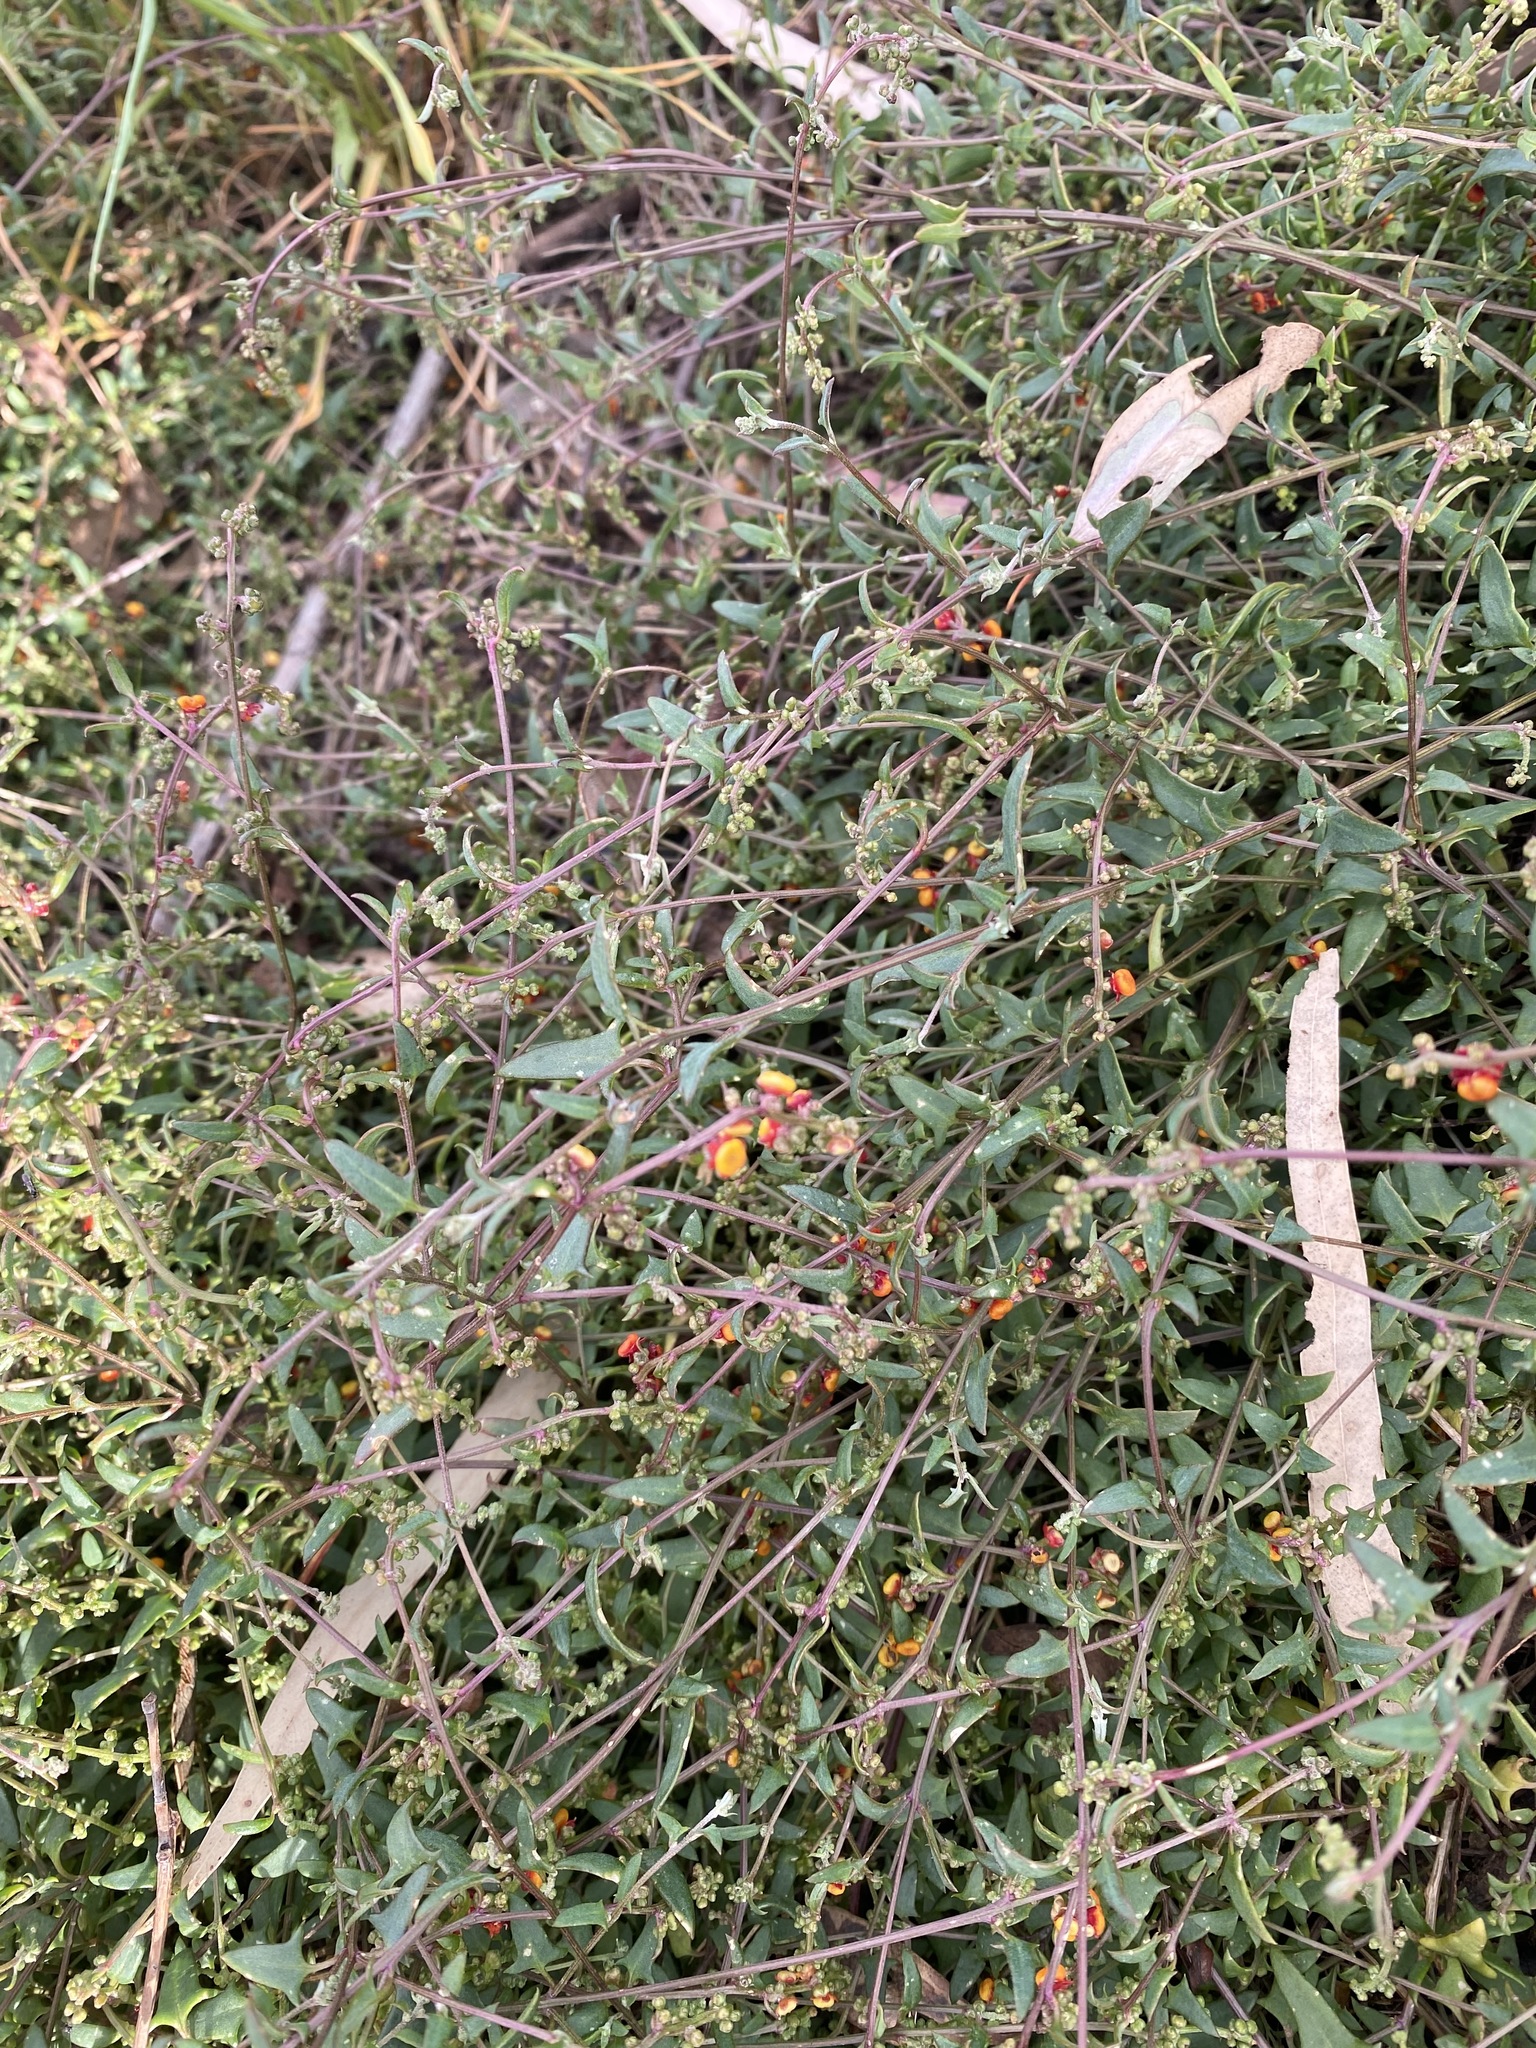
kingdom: Plantae
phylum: Tracheophyta
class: Magnoliopsida
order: Caryophyllales
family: Amaranthaceae
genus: Chenopodium
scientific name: Chenopodium nutans
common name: Climbing-saltbush
